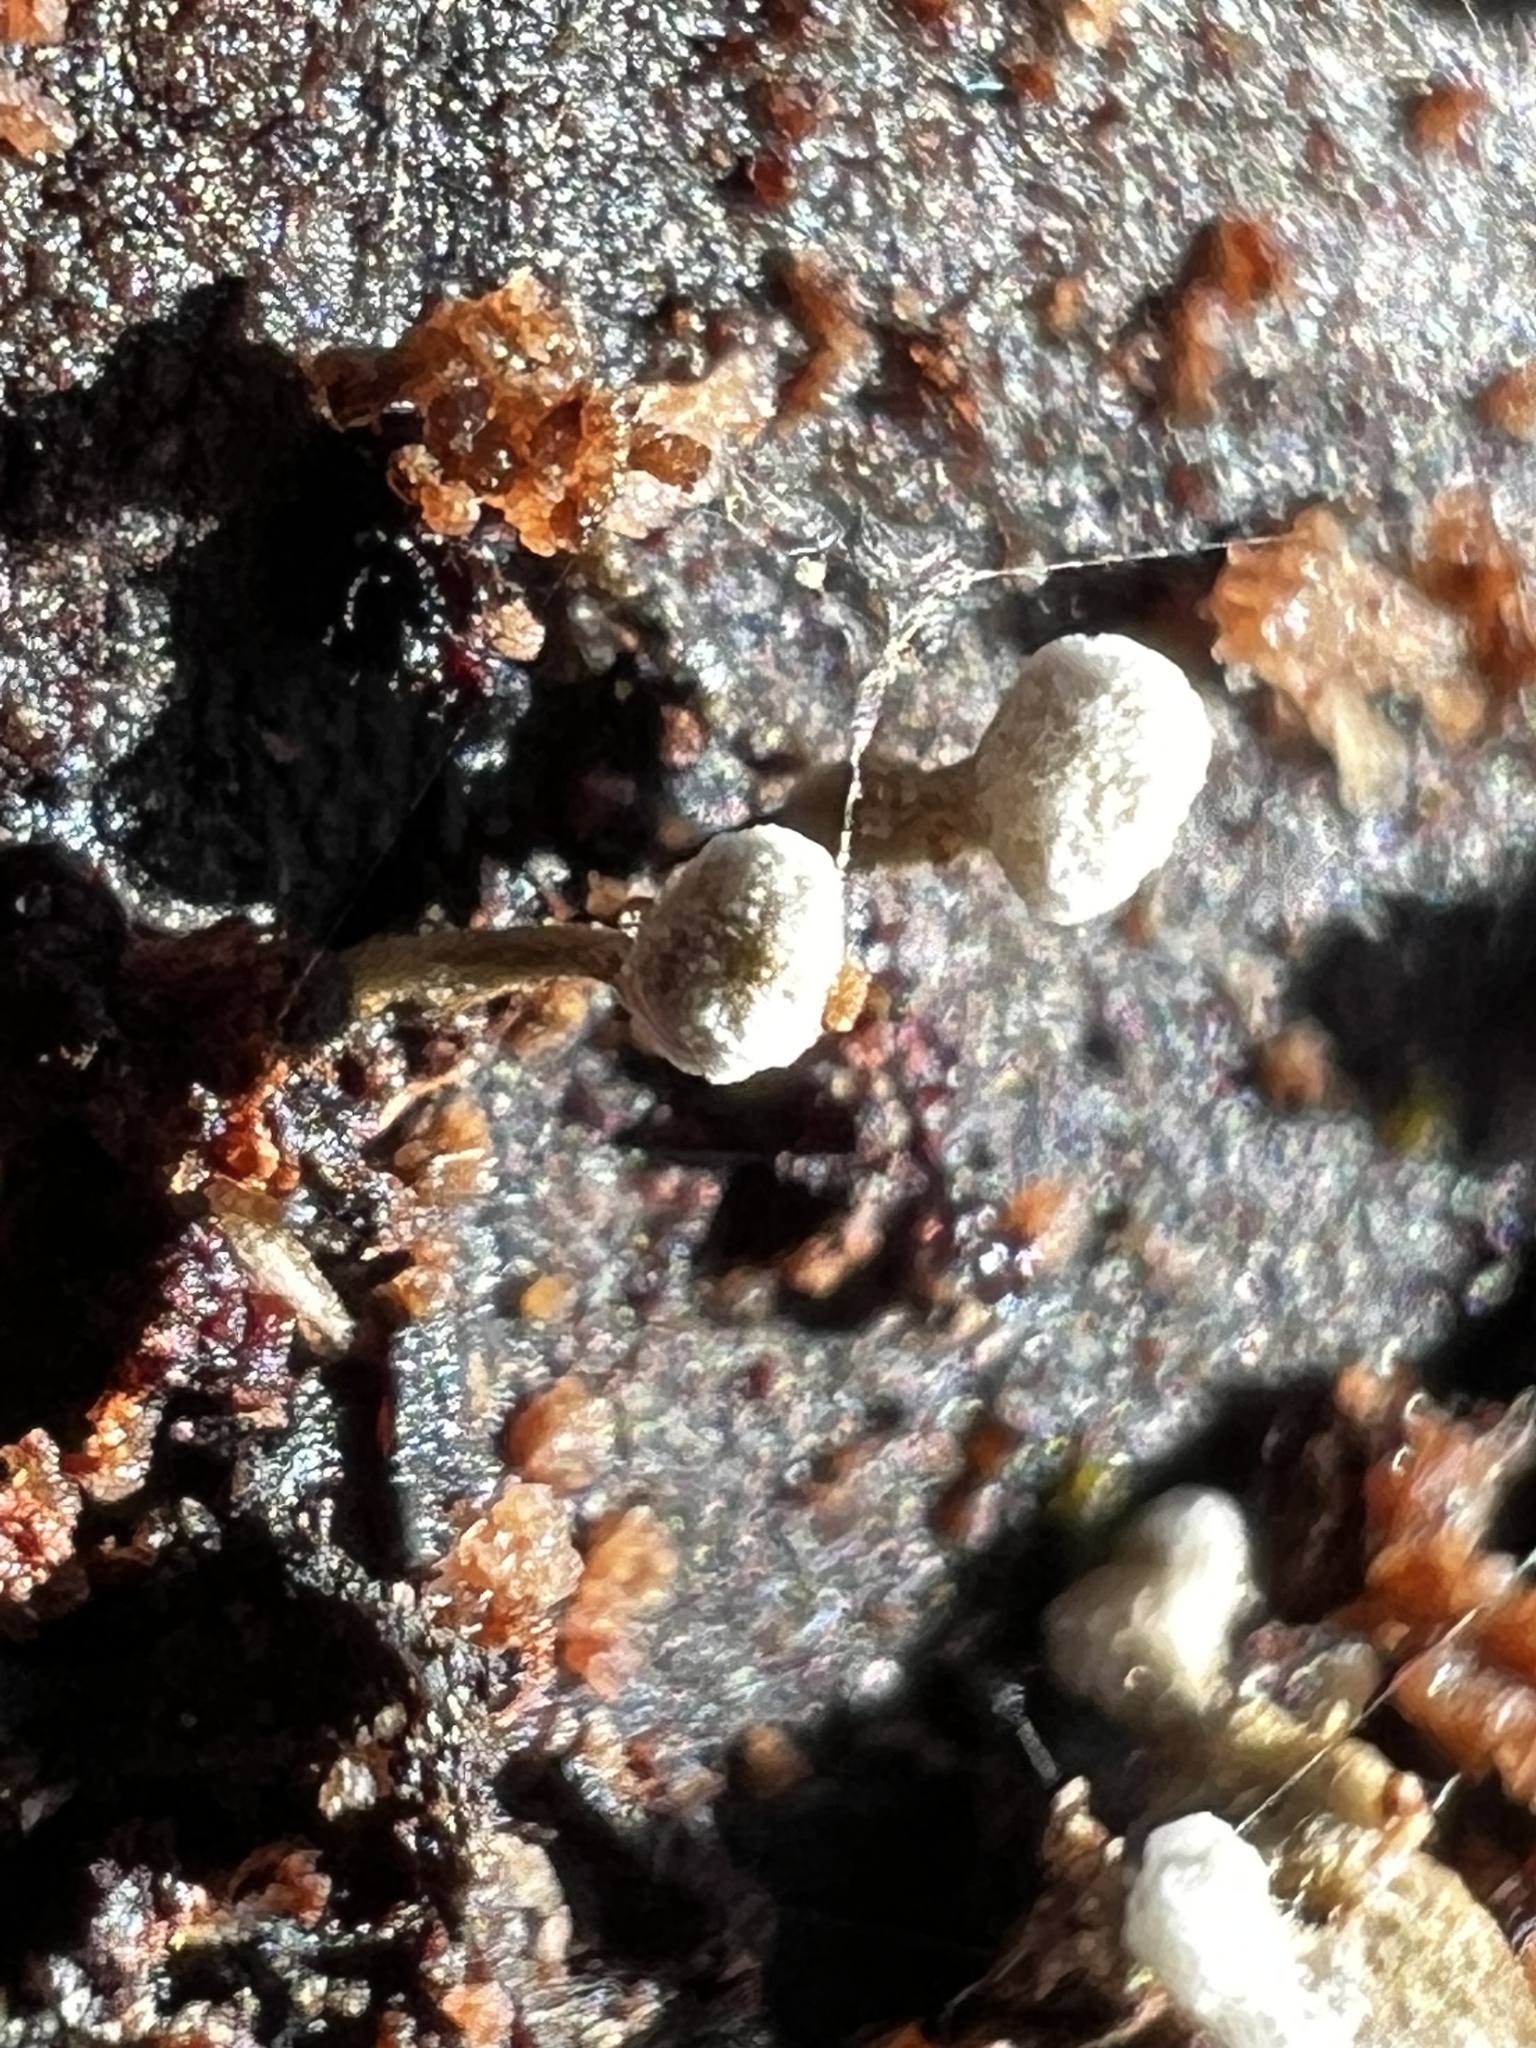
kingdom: Fungi
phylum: Basidiomycota
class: Atractiellomycetes
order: Atractiellales
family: Phleogenaceae
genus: Phleogena
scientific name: Phleogena faginea
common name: Fenugreek stalkball
